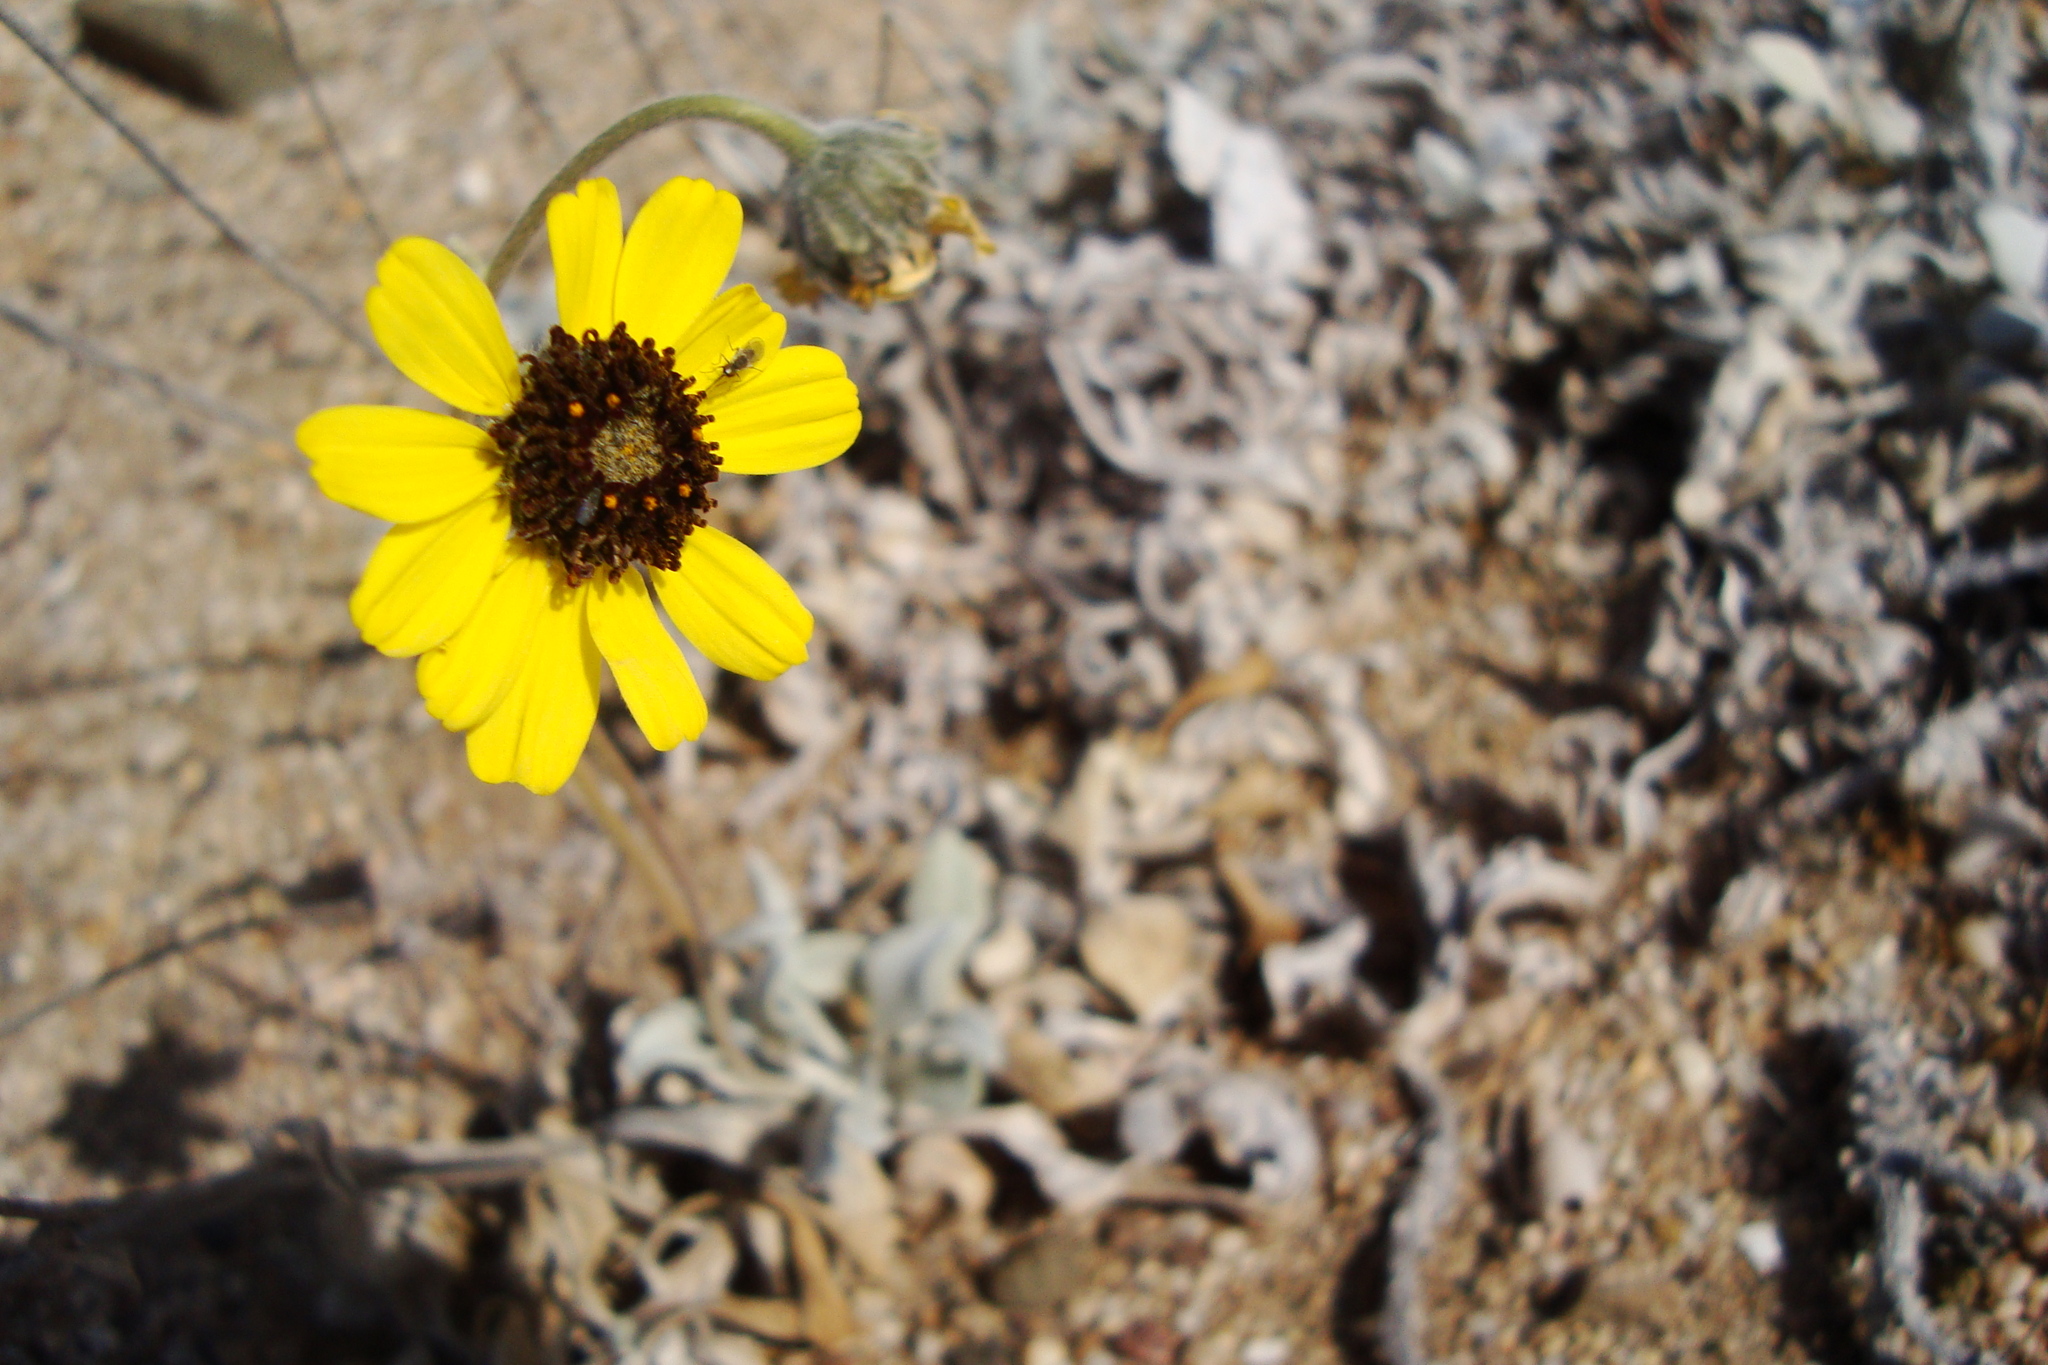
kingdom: Plantae
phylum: Tracheophyta
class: Magnoliopsida
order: Asterales
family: Asteraceae
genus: Encelia
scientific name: Encelia canescens
